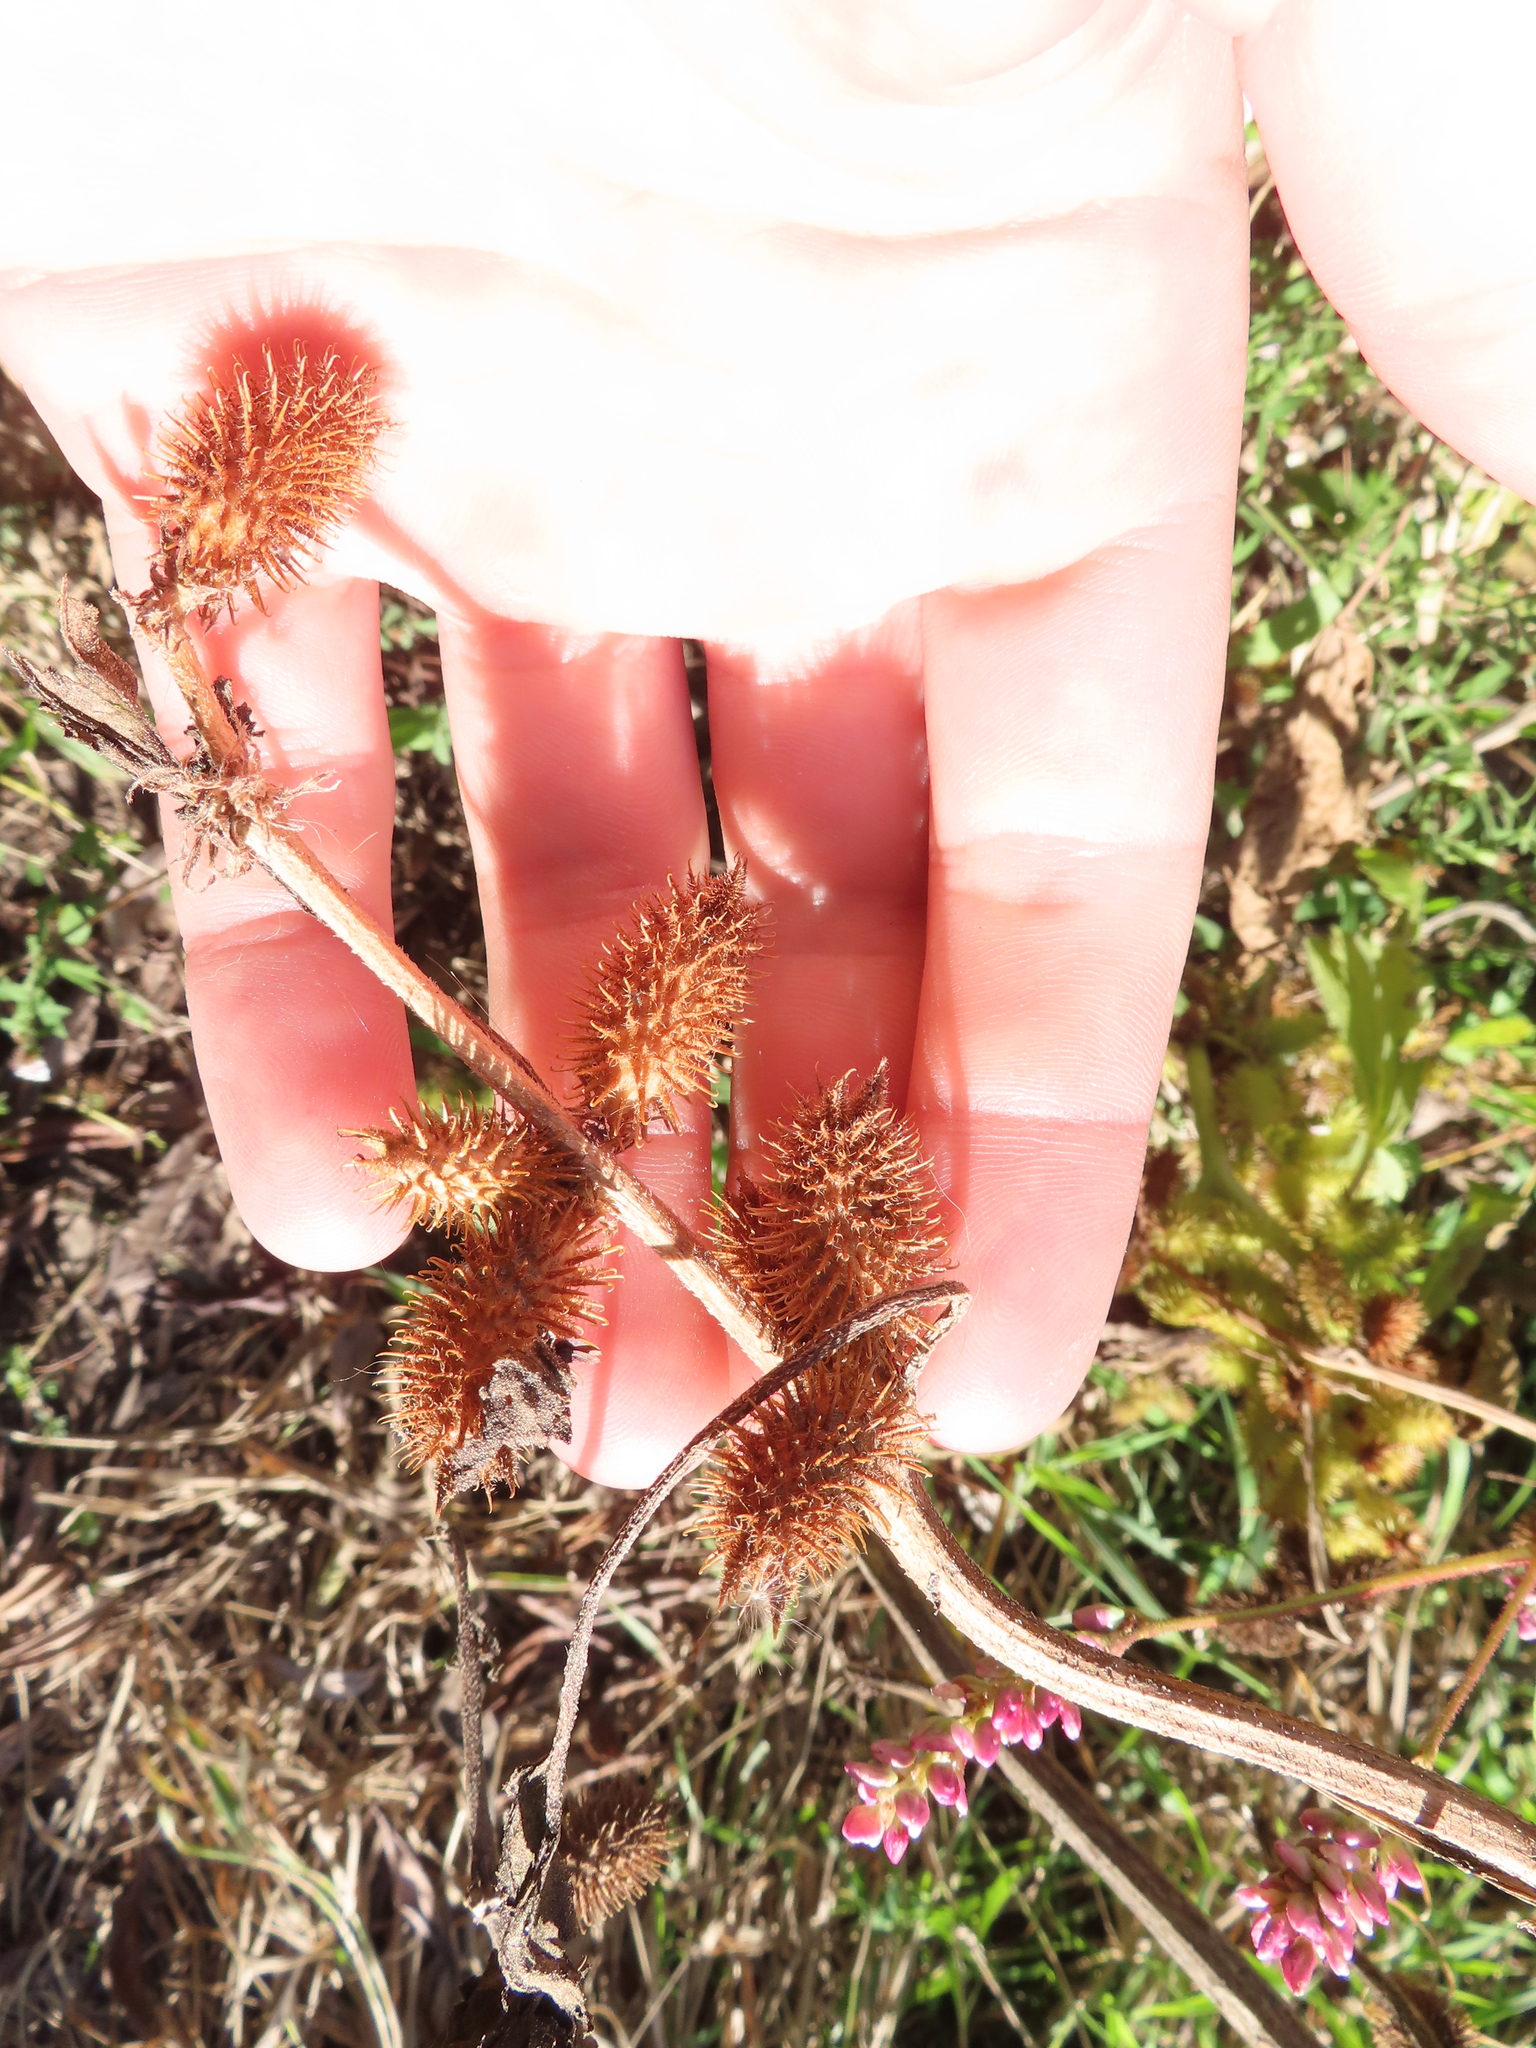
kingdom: Plantae
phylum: Tracheophyta
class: Magnoliopsida
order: Asterales
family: Asteraceae
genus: Xanthium
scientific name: Xanthium strumarium
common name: Rough cocklebur
